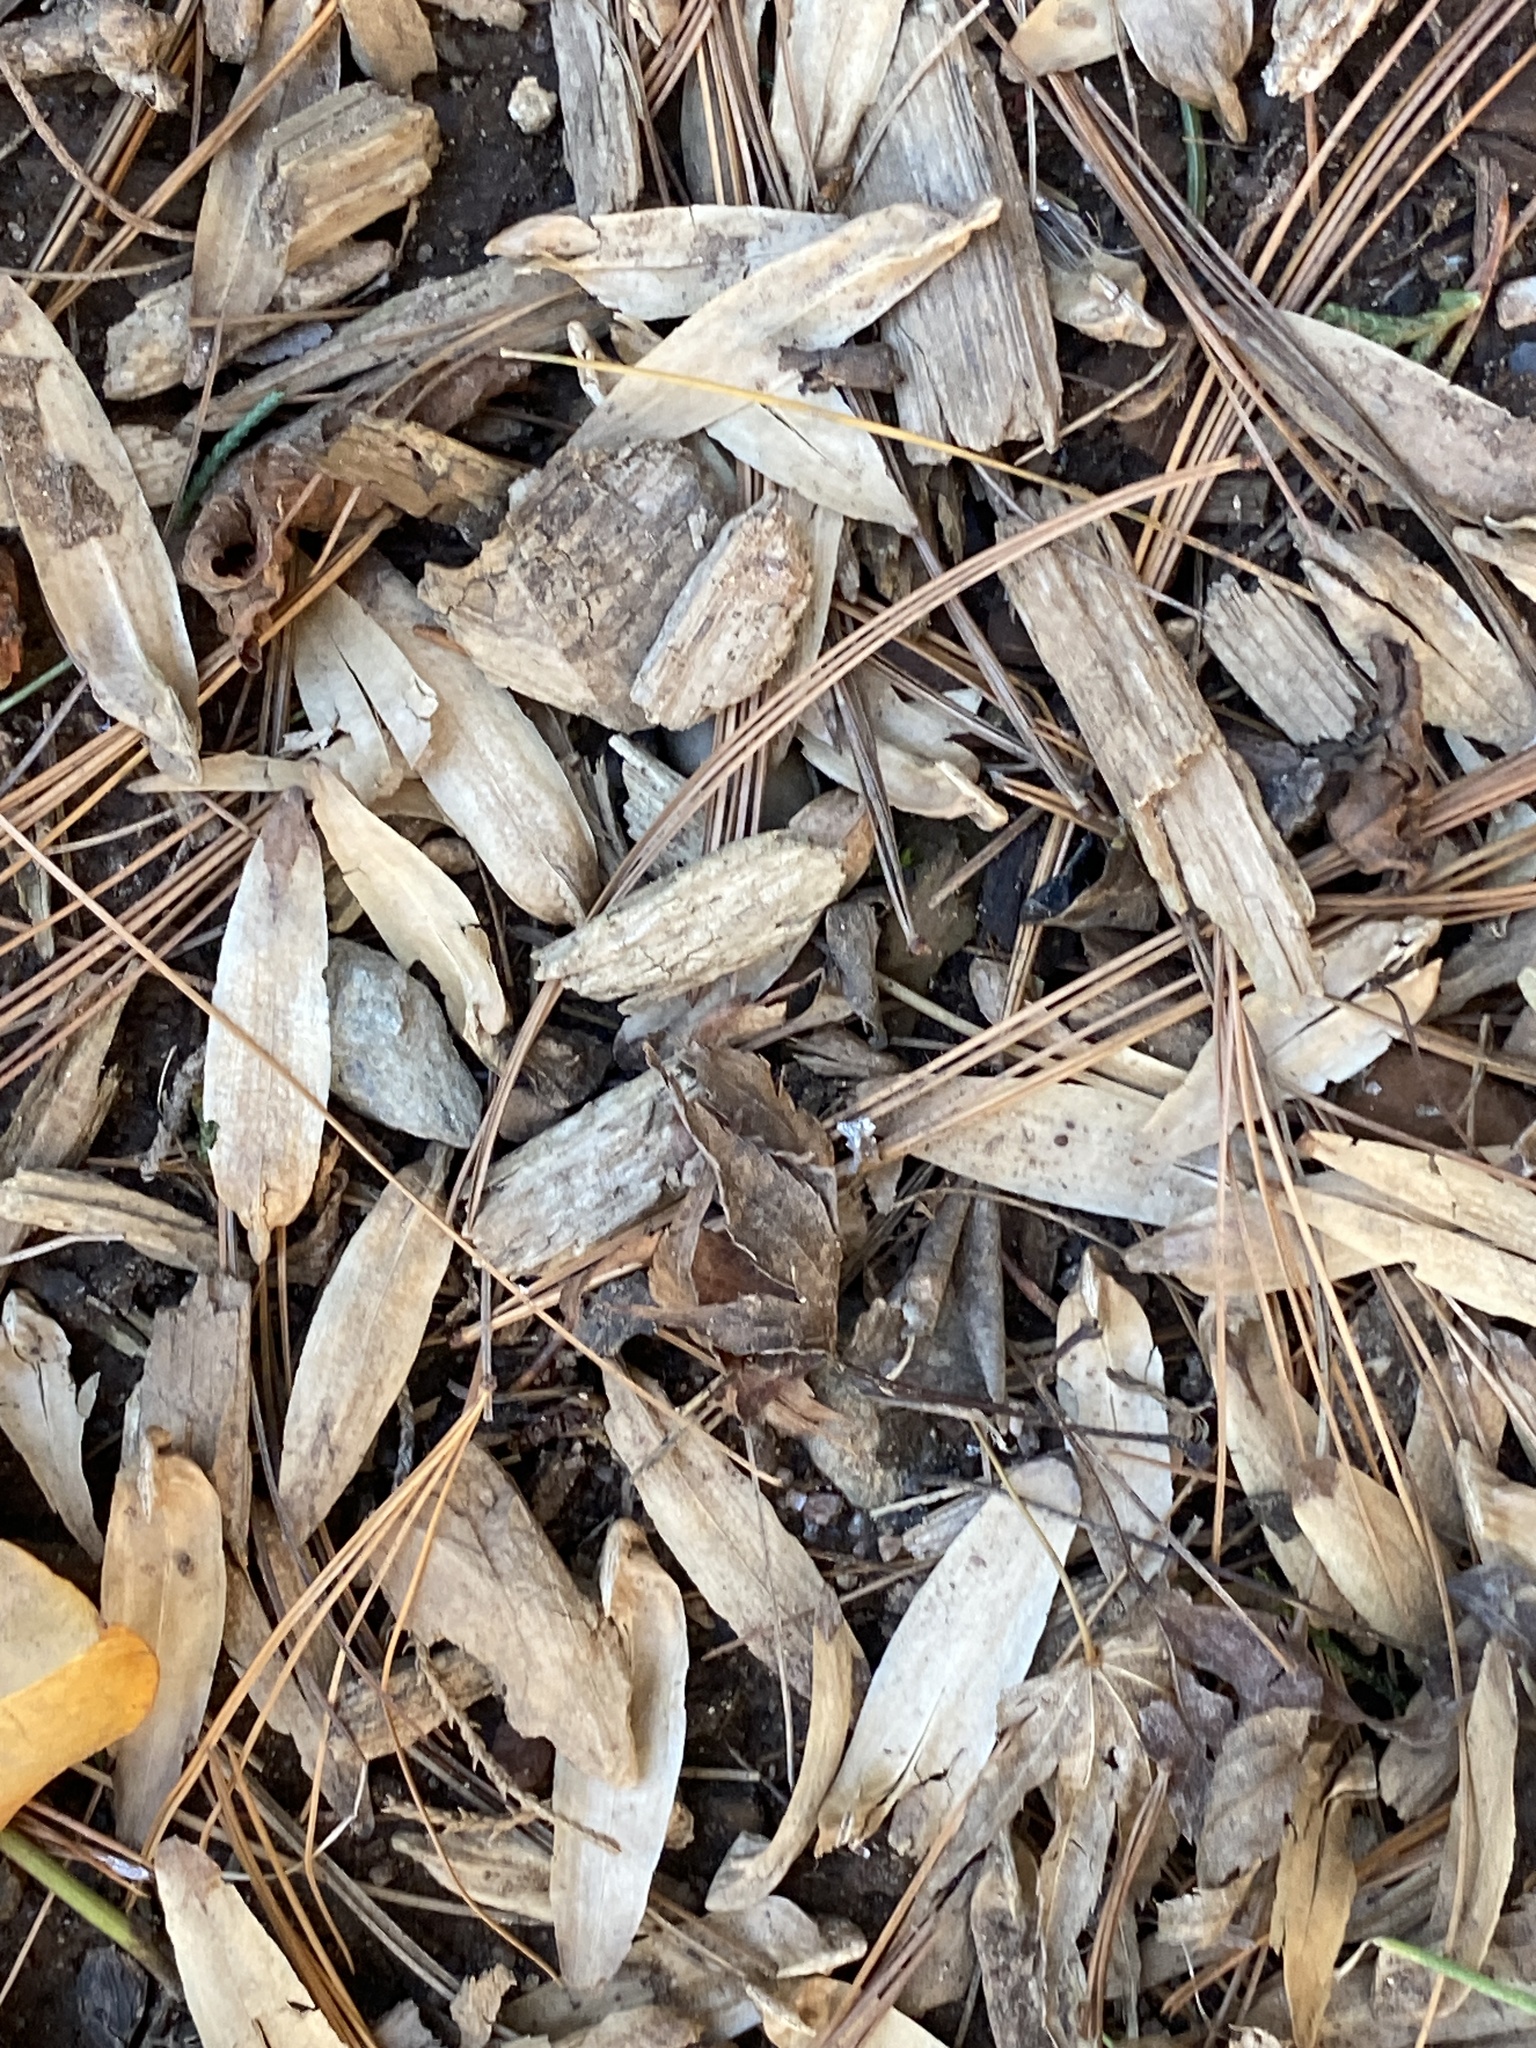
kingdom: Plantae
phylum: Tracheophyta
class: Magnoliopsida
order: Magnoliales
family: Magnoliaceae
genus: Liriodendron
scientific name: Liriodendron tulipifera
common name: Tulip tree
